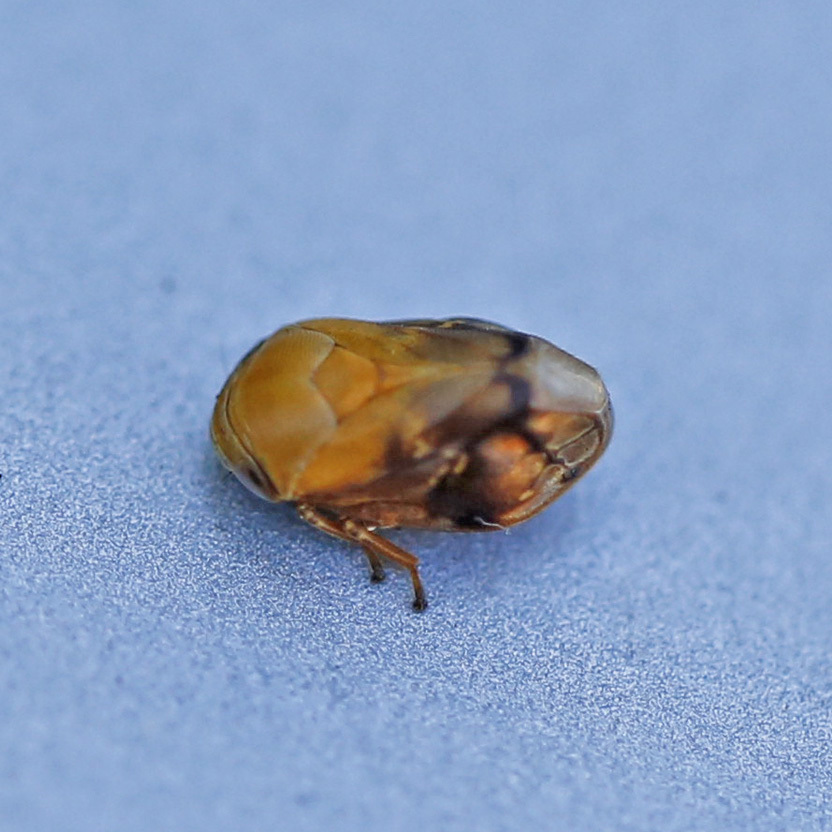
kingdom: Animalia
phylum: Arthropoda
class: Insecta
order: Hemiptera
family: Clastopteridae
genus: Clastoptera
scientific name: Clastoptera achatina
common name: Pecan spittlebug
